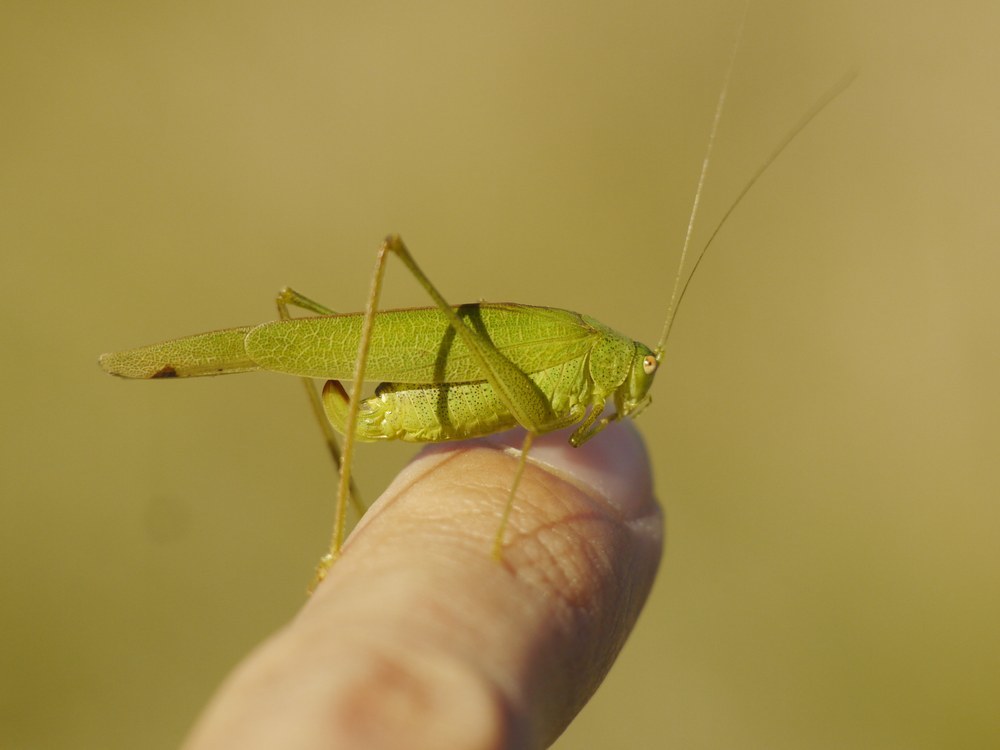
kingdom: Animalia
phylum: Arthropoda
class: Insecta
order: Orthoptera
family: Tettigoniidae
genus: Phaneroptera
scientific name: Phaneroptera nana
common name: Southern sickle bush-cricket
